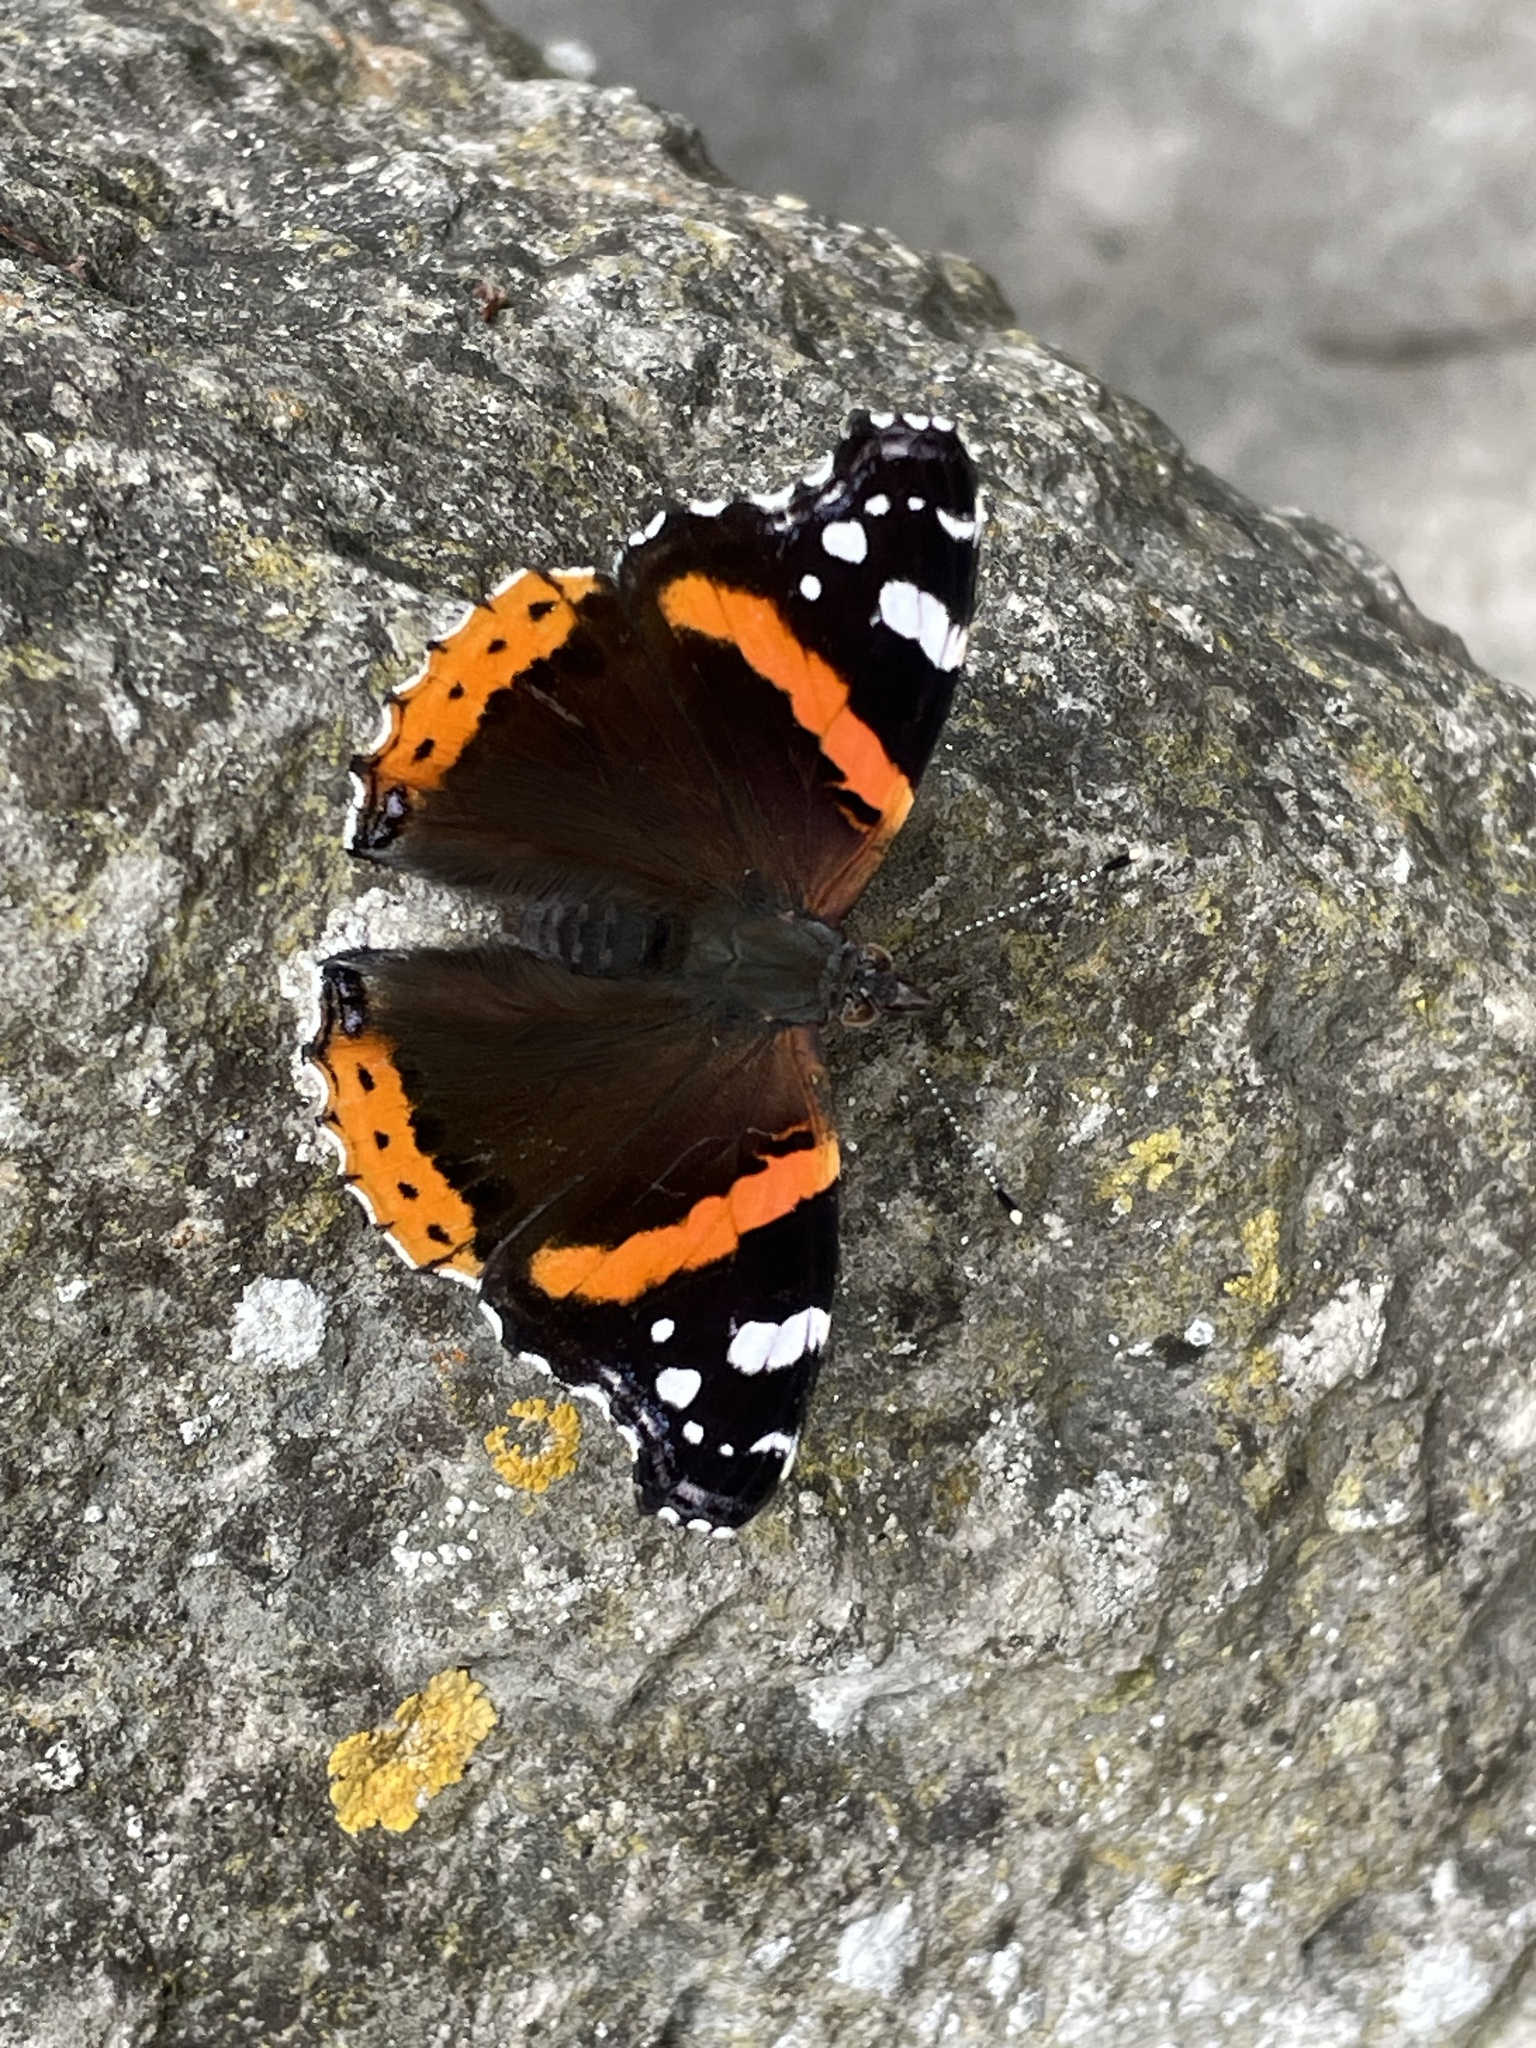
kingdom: Animalia
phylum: Arthropoda
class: Insecta
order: Lepidoptera
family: Nymphalidae
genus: Vanessa
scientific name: Vanessa atalanta
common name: Red admiral
